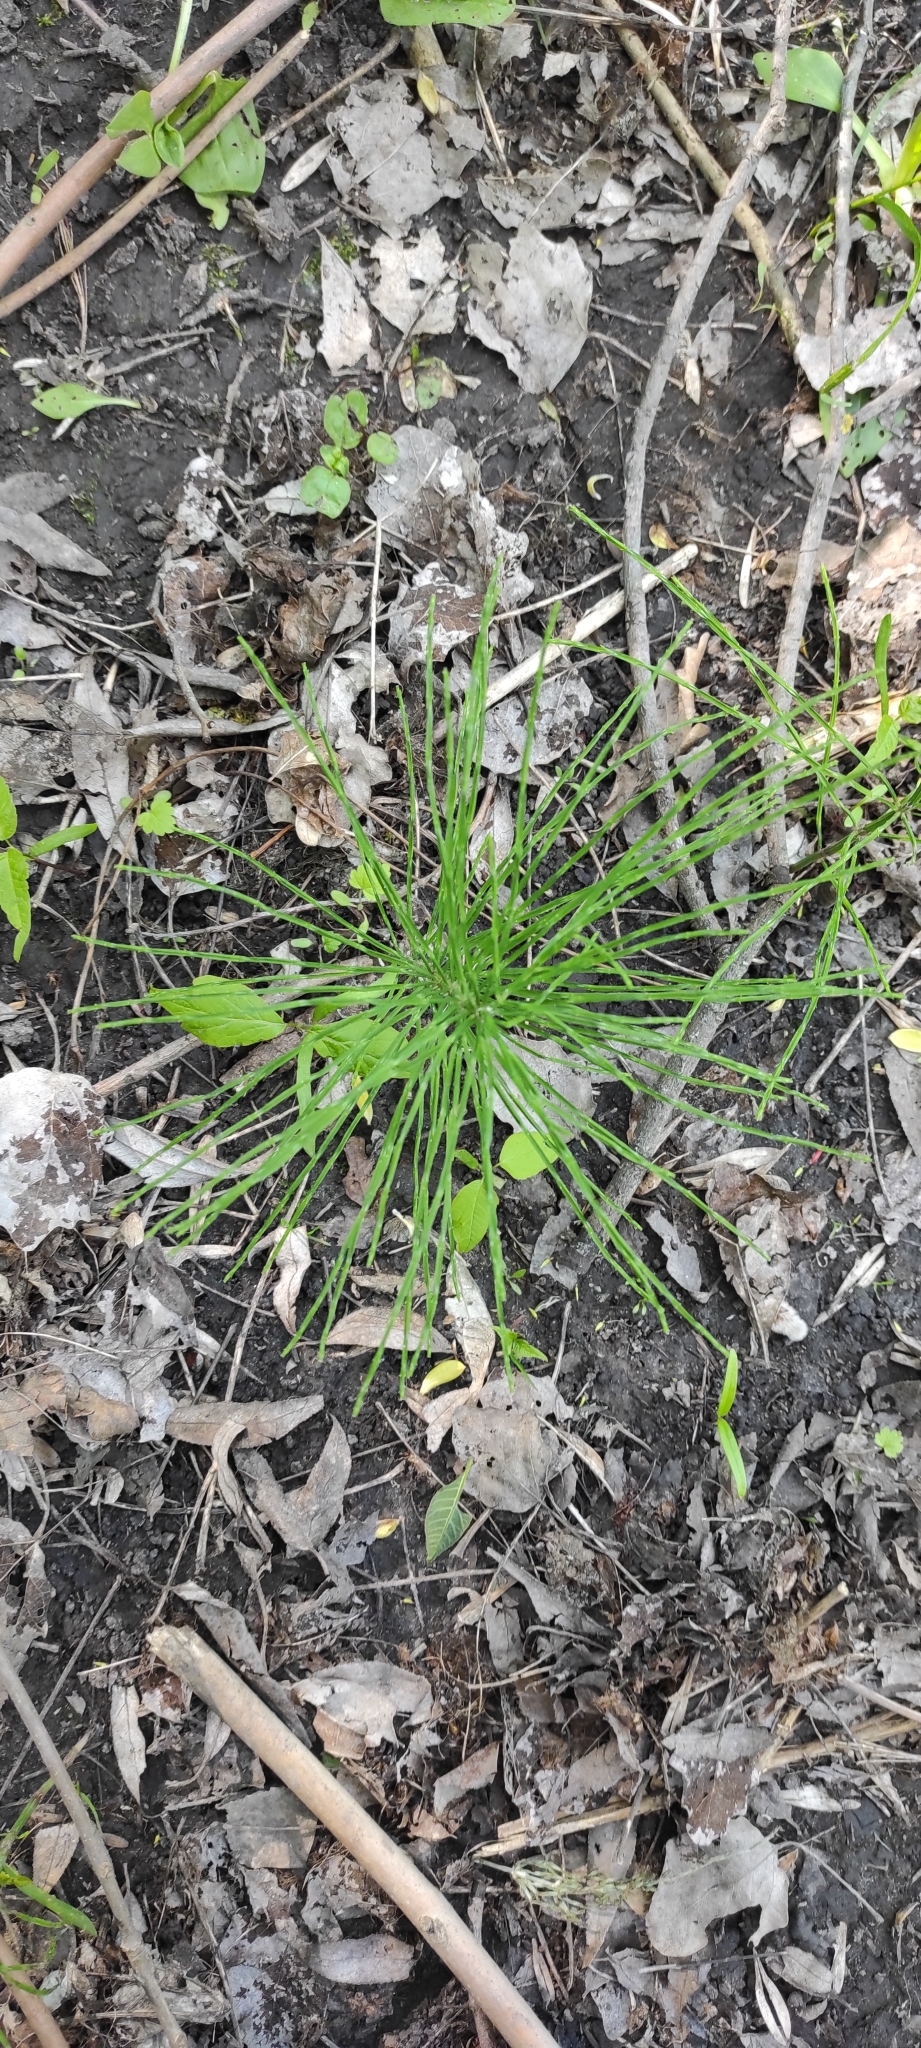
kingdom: Plantae
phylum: Tracheophyta
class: Polypodiopsida
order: Equisetales
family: Equisetaceae
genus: Equisetum
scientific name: Equisetum arvense
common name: Field horsetail
